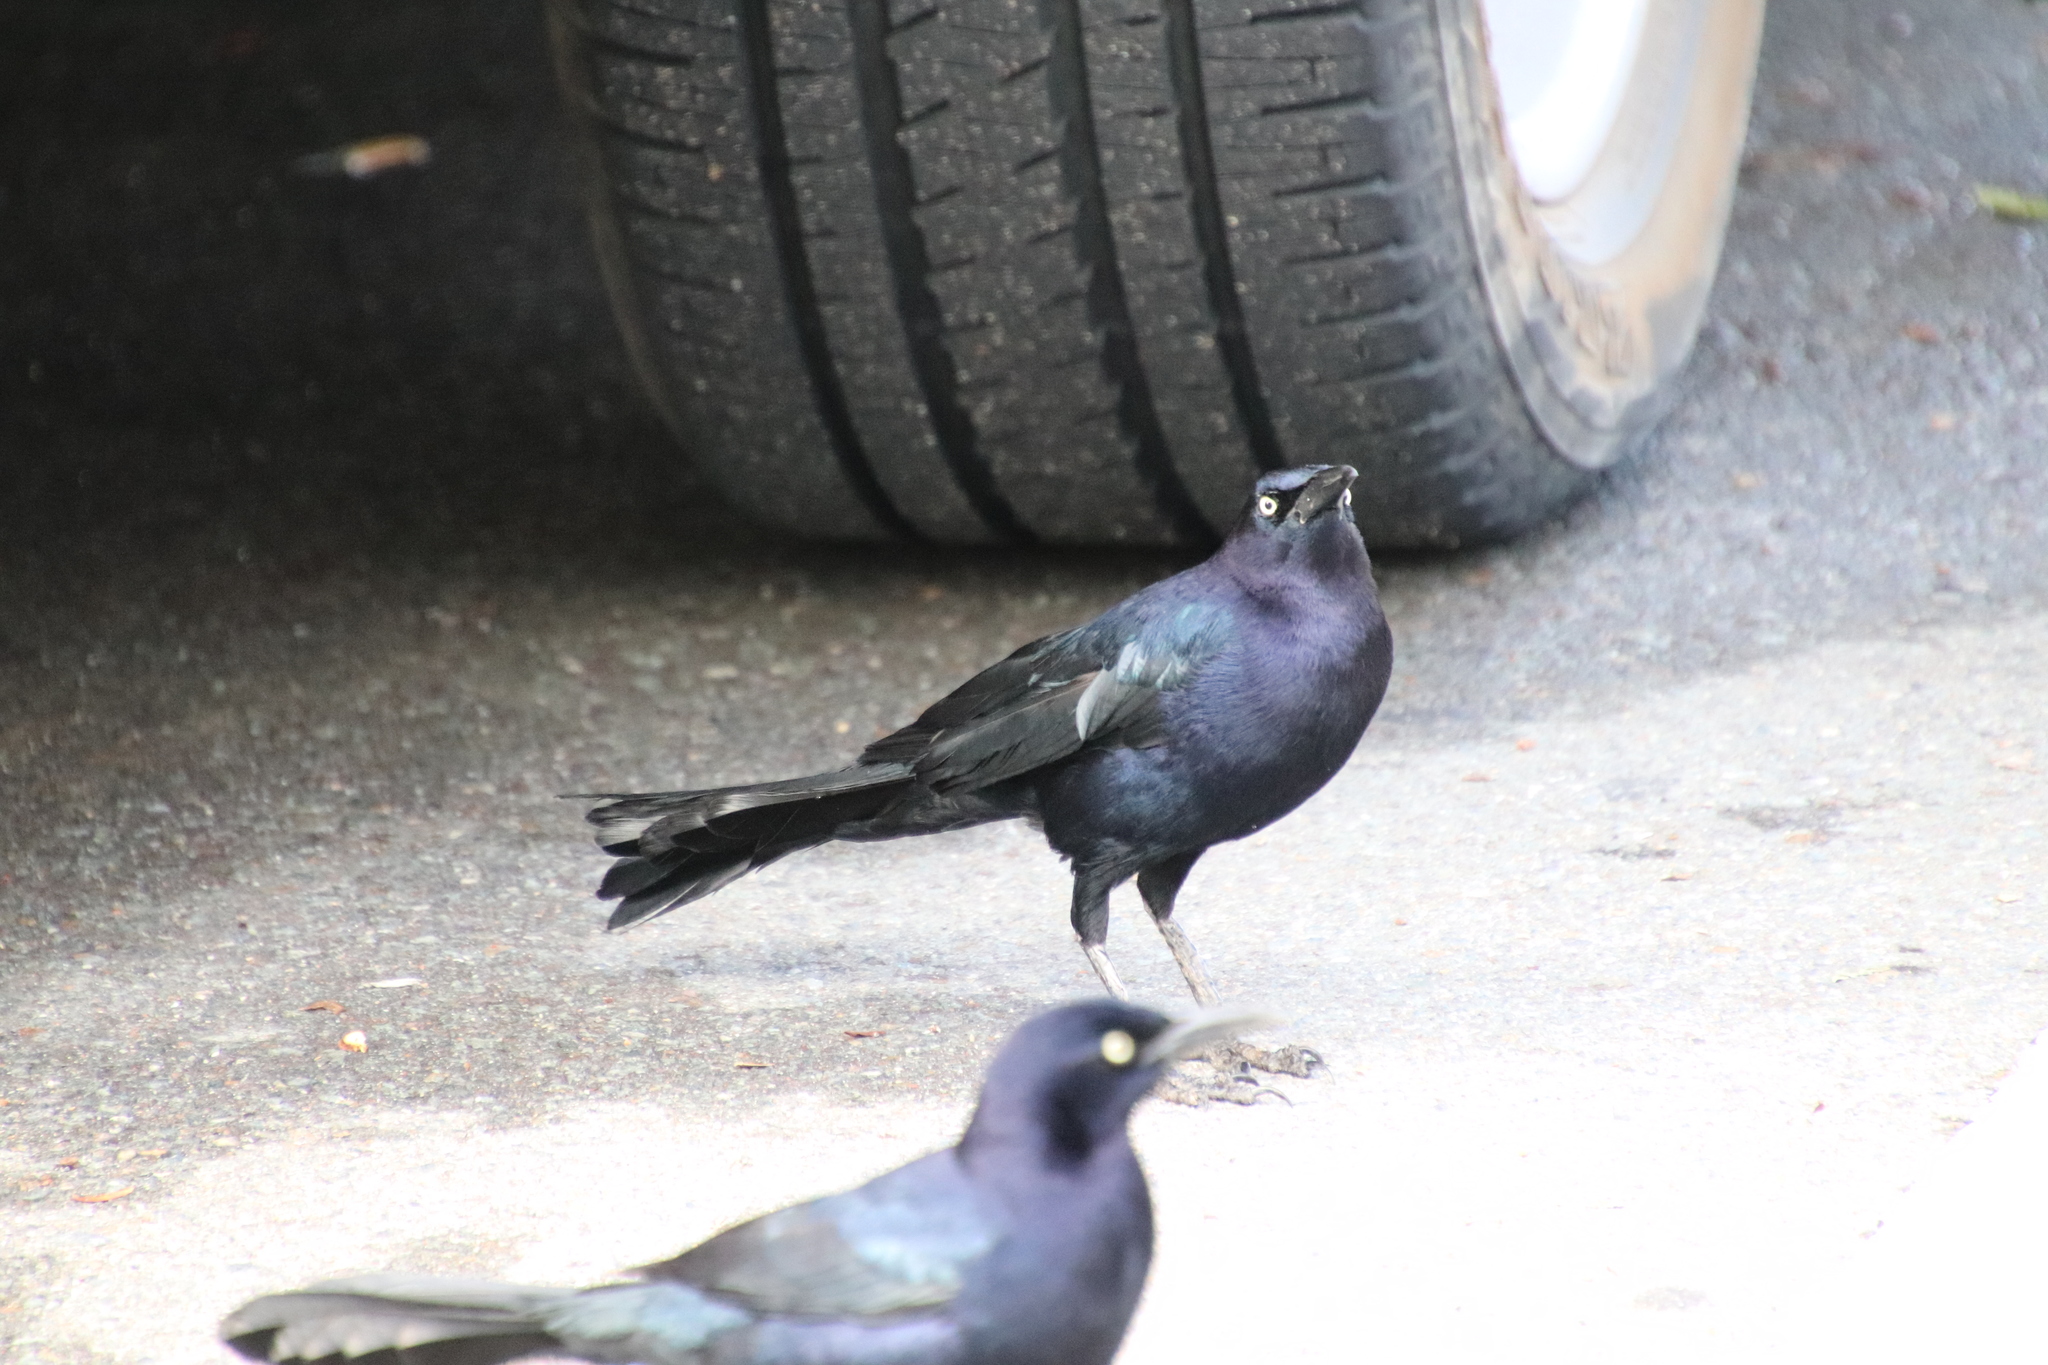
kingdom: Animalia
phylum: Chordata
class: Aves
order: Passeriformes
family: Icteridae
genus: Quiscalus
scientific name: Quiscalus mexicanus
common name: Great-tailed grackle
